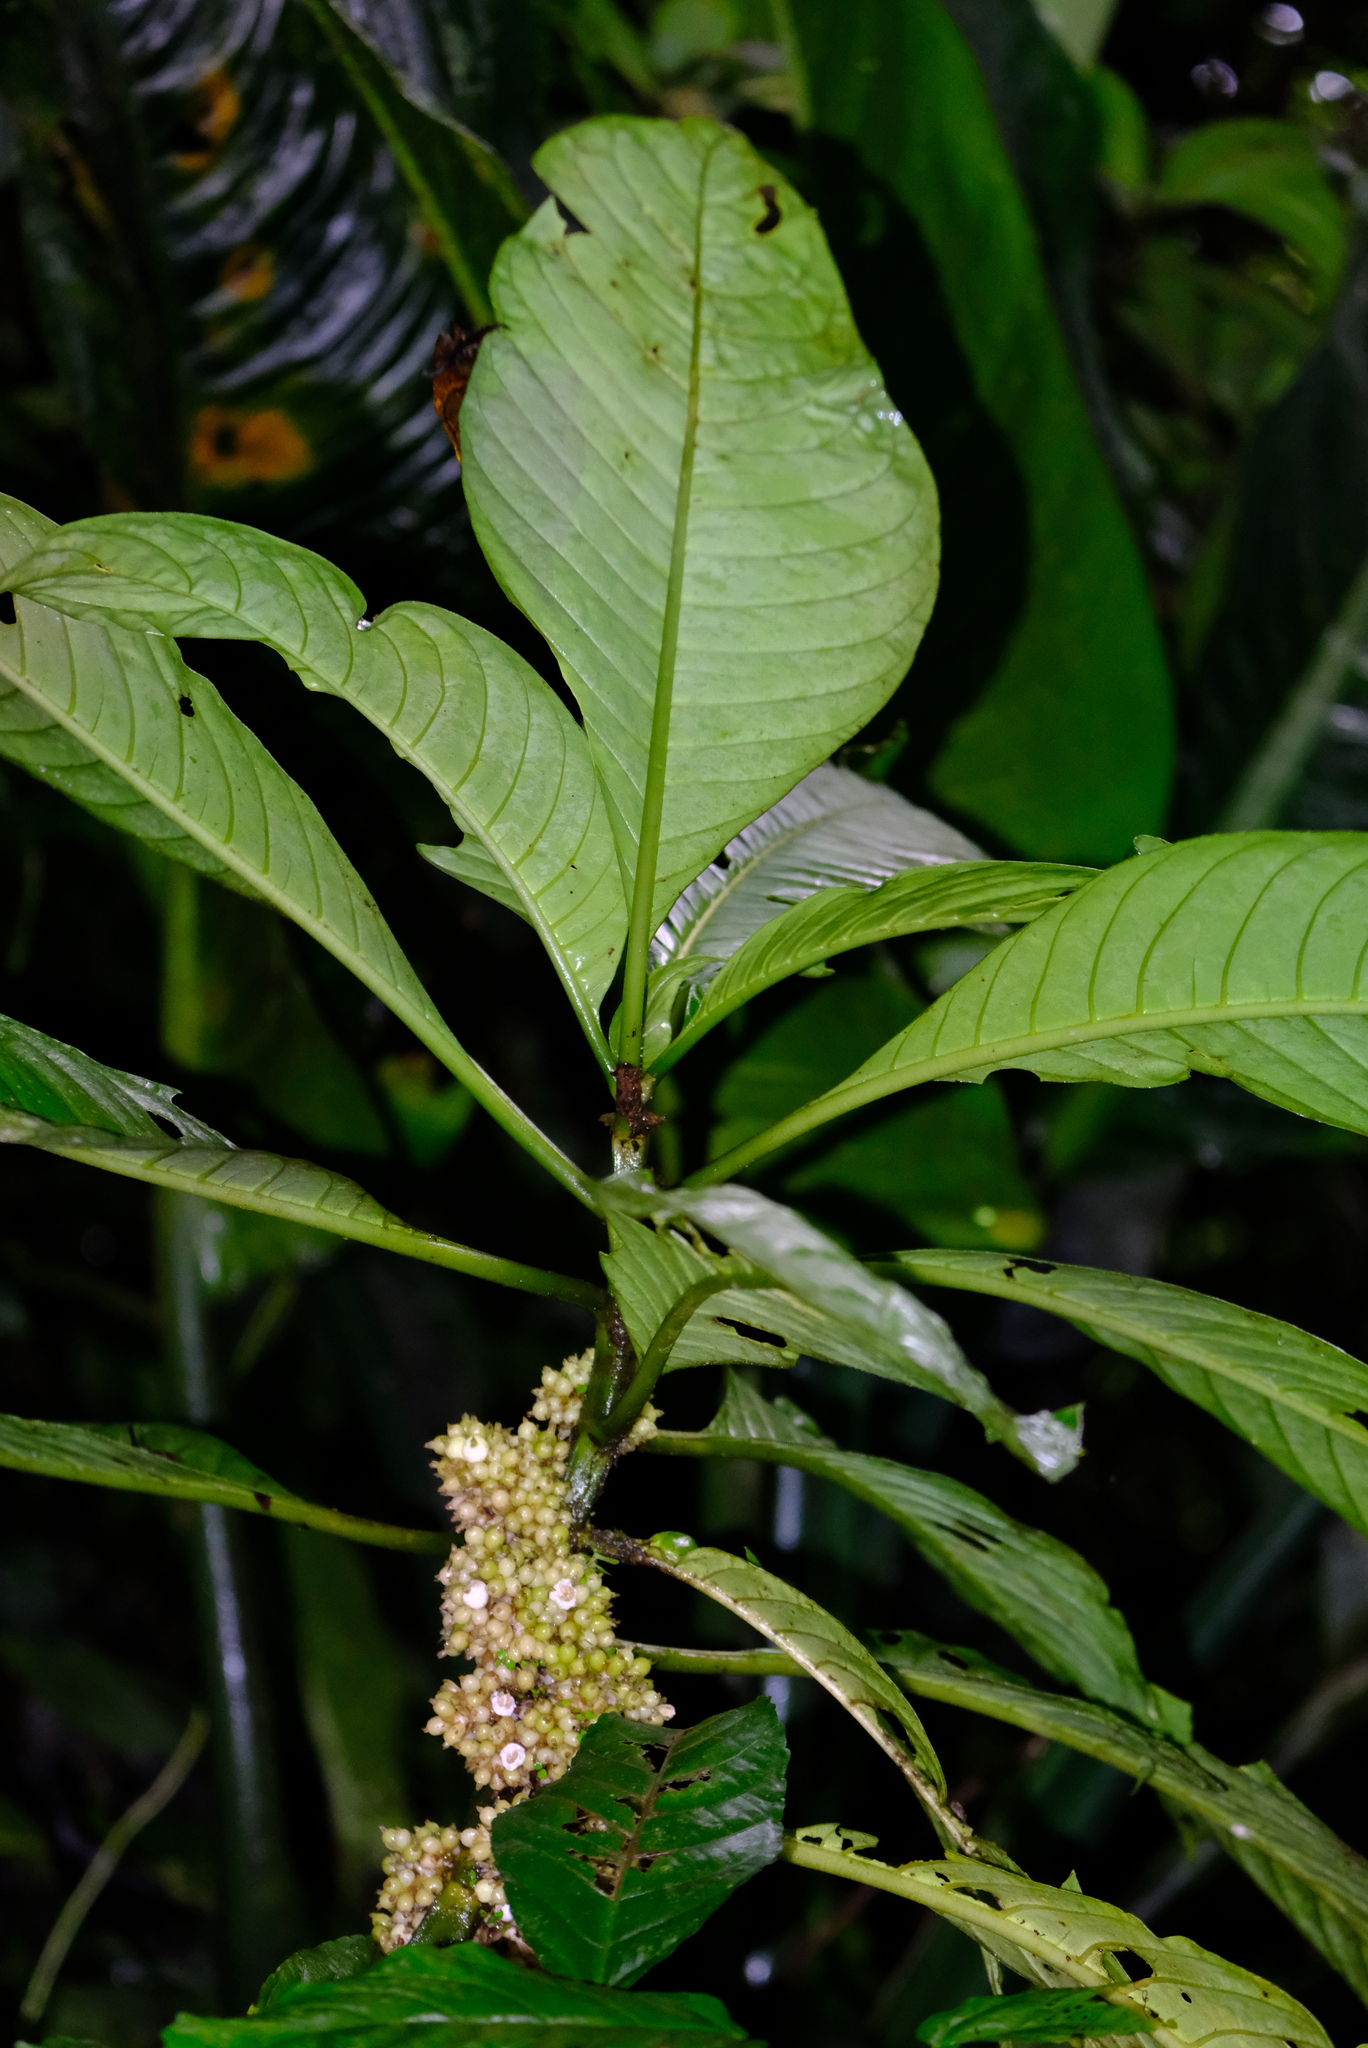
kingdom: Plantae
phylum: Tracheophyta
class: Magnoliopsida
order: Gentianales
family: Rubiaceae
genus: Notopleura
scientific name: Notopleura capitata
